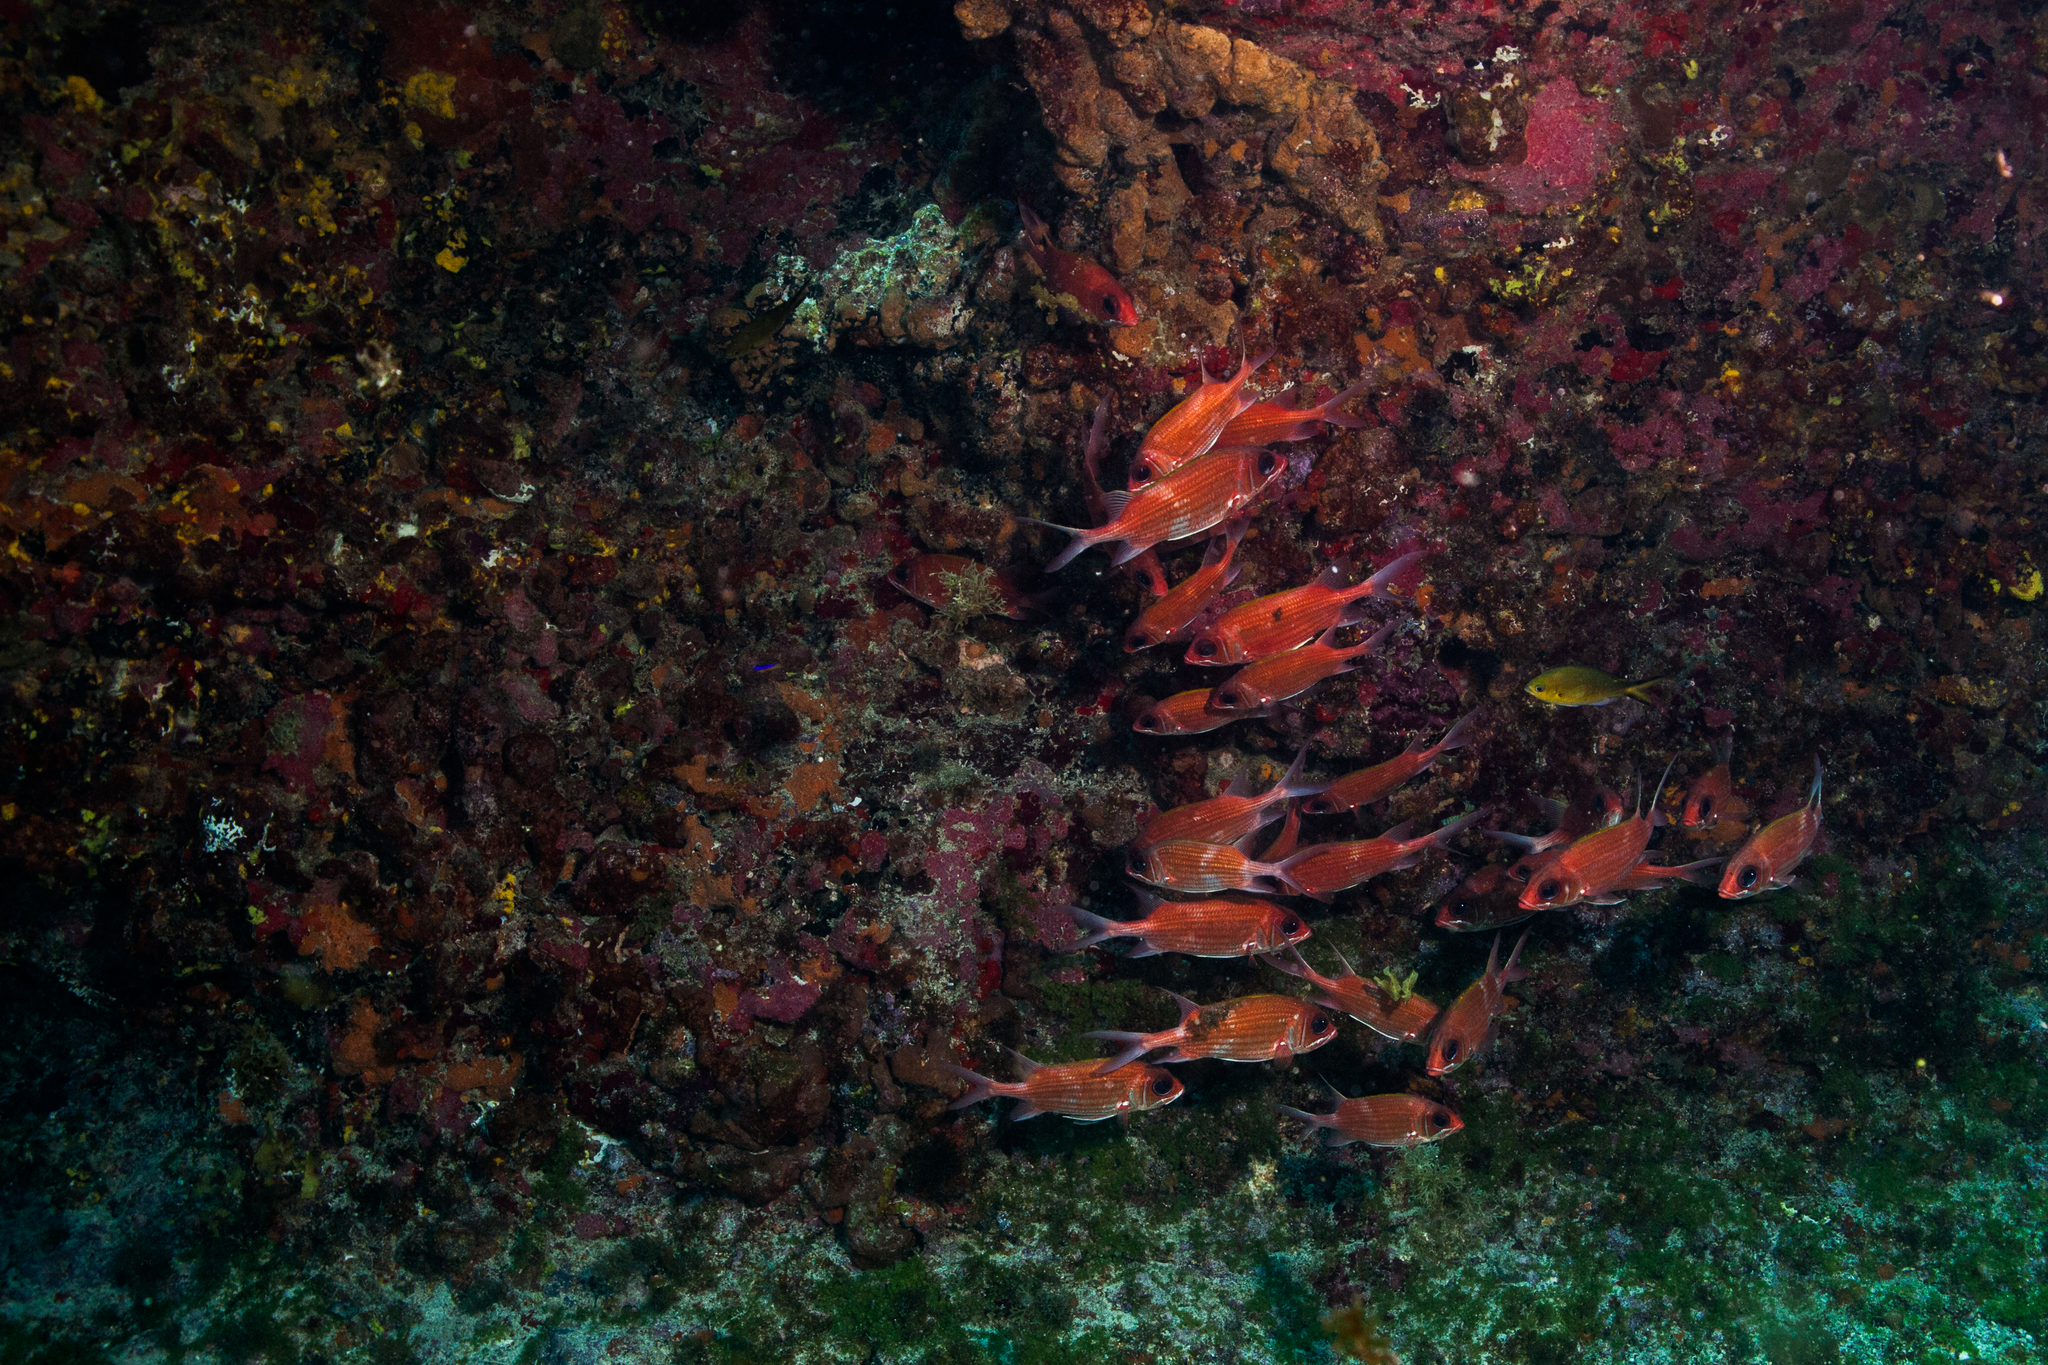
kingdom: Animalia
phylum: Chordata
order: Beryciformes
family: Holocentridae
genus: Holocentrus
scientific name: Holocentrus adscensionis
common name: Squirrelfish
